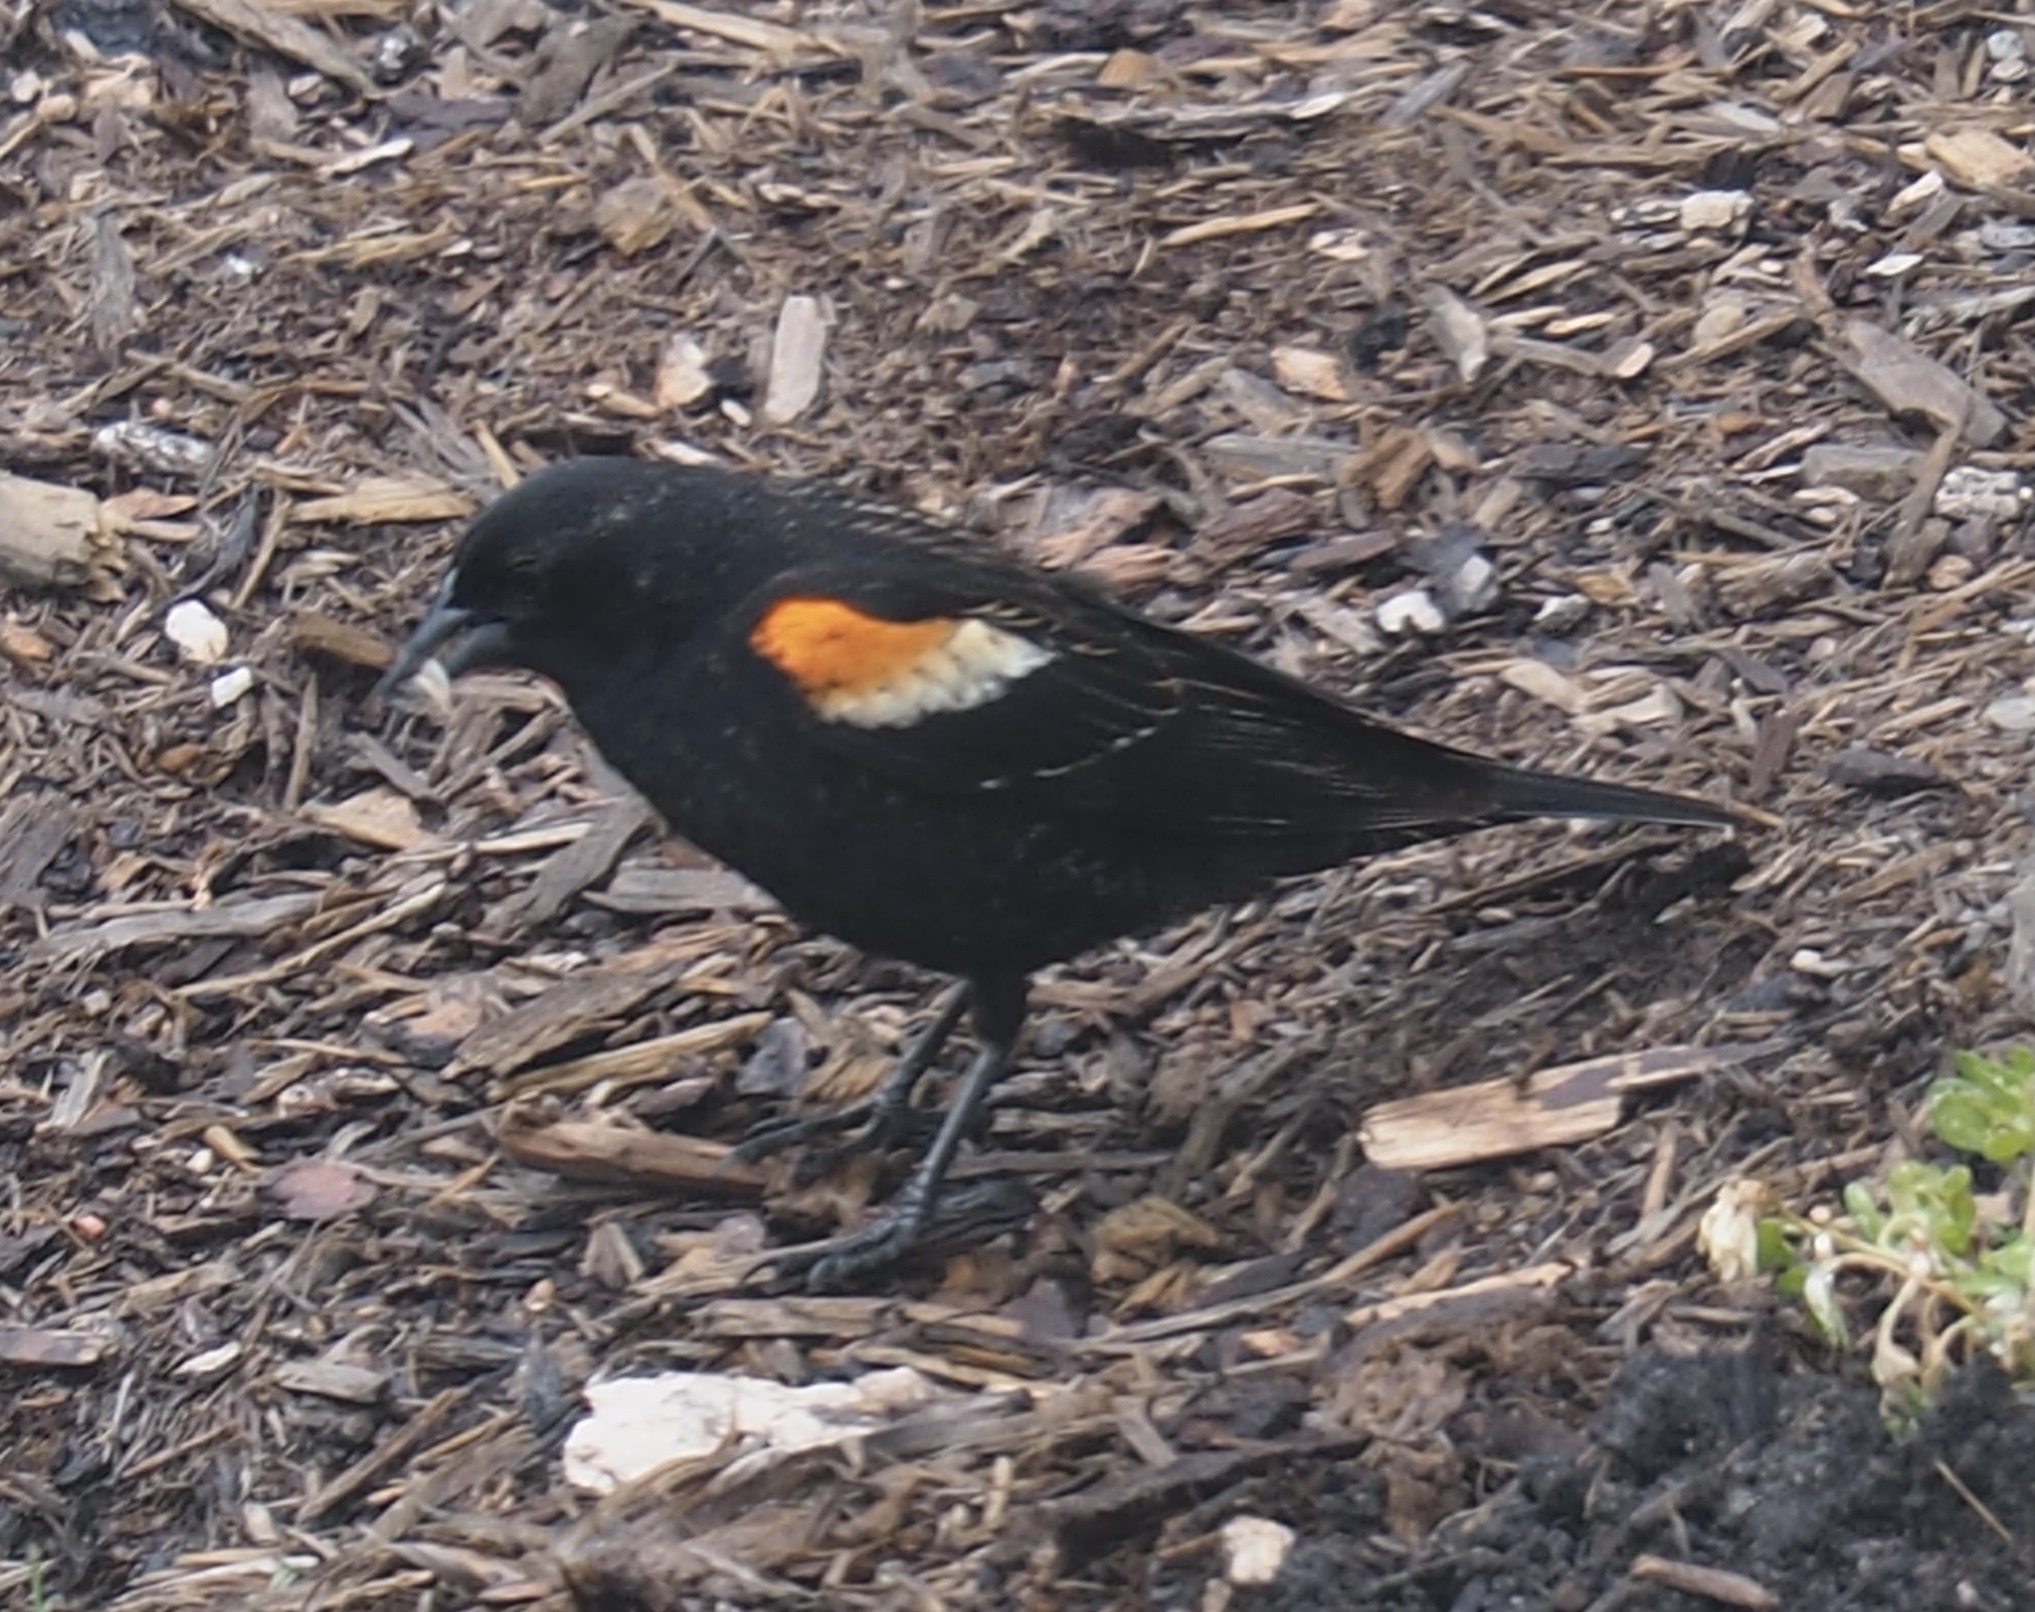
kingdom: Animalia
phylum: Chordata
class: Aves
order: Passeriformes
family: Icteridae
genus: Agelaius
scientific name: Agelaius phoeniceus
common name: Red-winged blackbird
